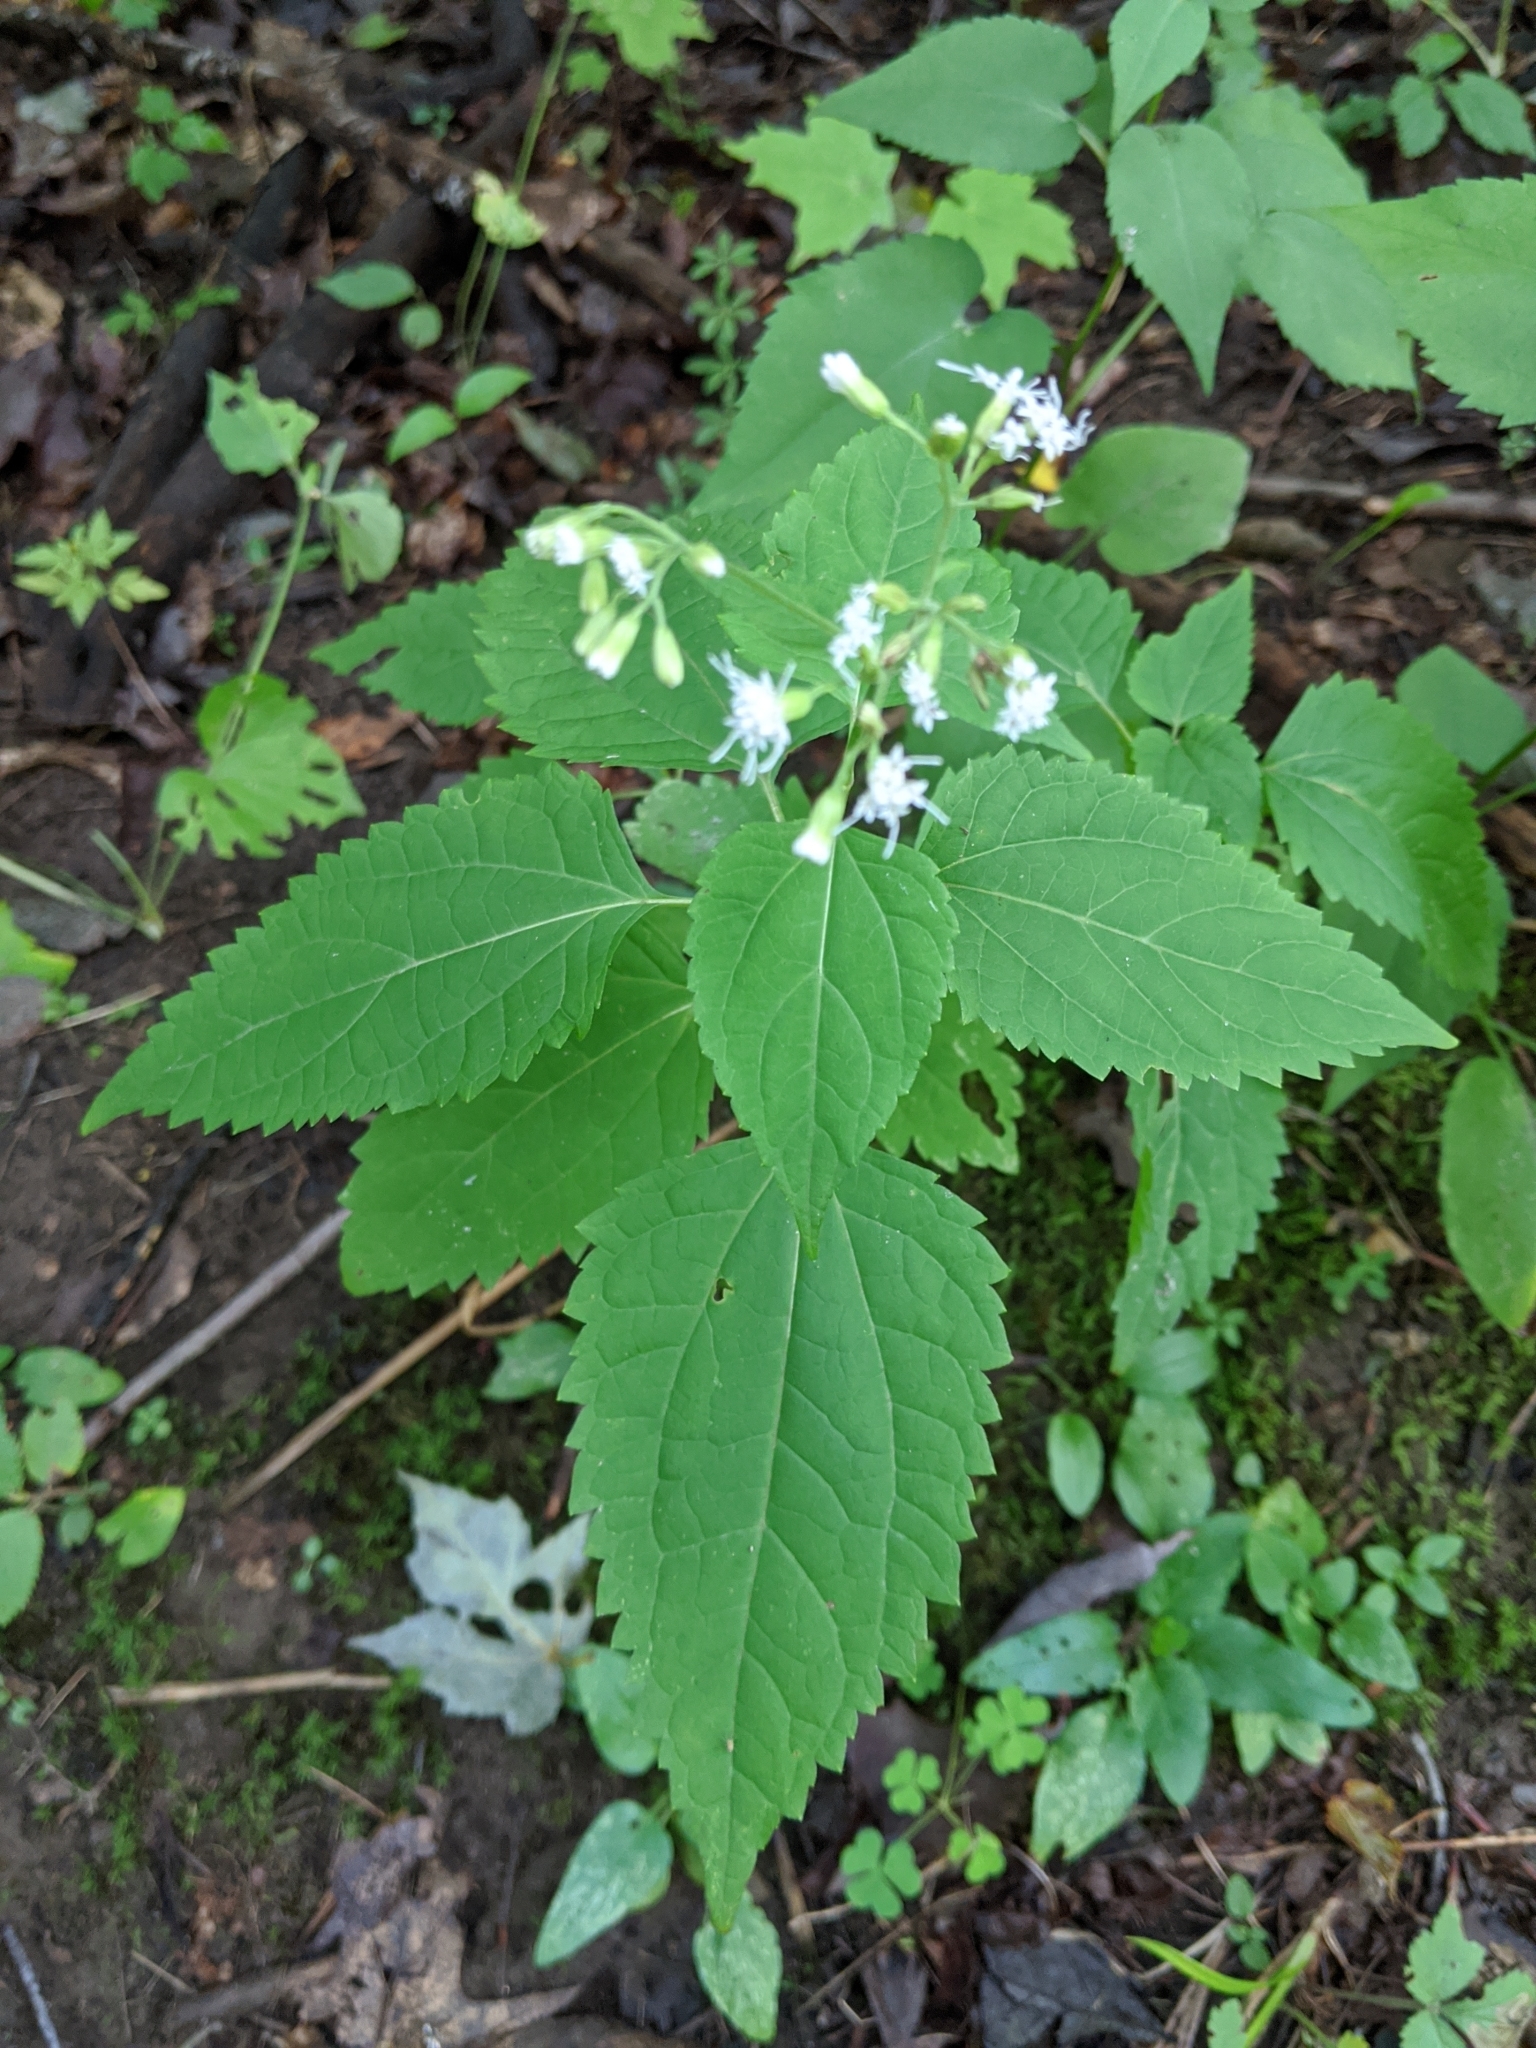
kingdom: Plantae
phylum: Tracheophyta
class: Magnoliopsida
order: Asterales
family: Asteraceae
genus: Ageratina
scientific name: Ageratina altissima
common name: White snakeroot
